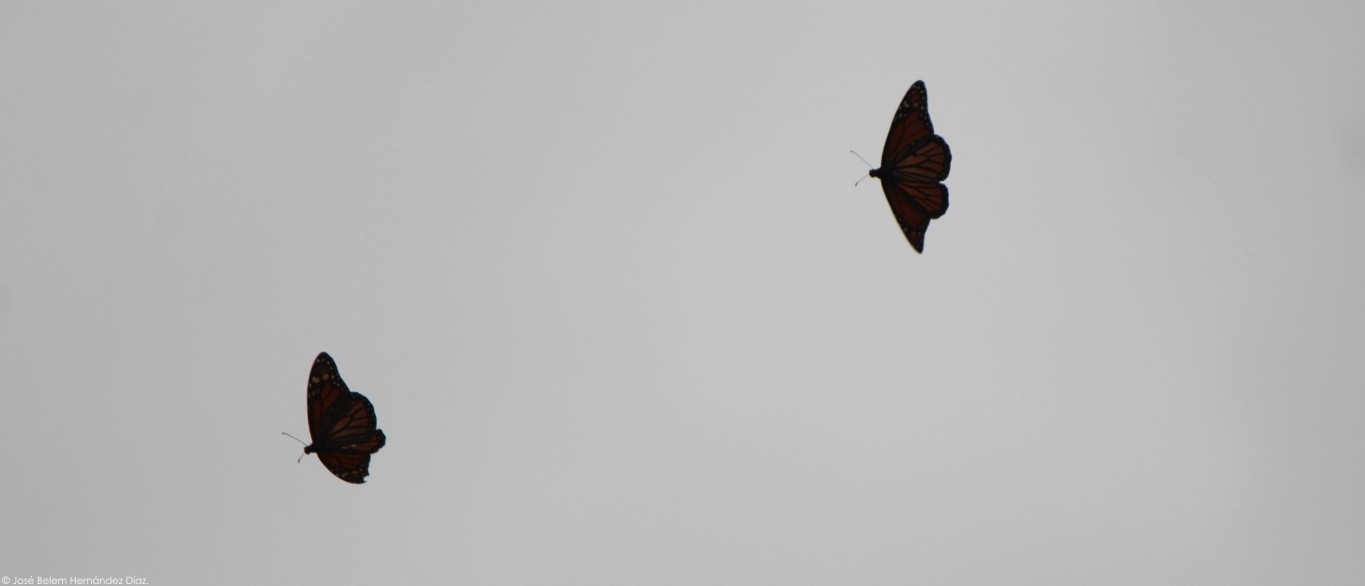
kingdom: Animalia
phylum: Arthropoda
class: Insecta
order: Lepidoptera
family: Nymphalidae
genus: Danaus
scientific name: Danaus plexippus
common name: Monarch
